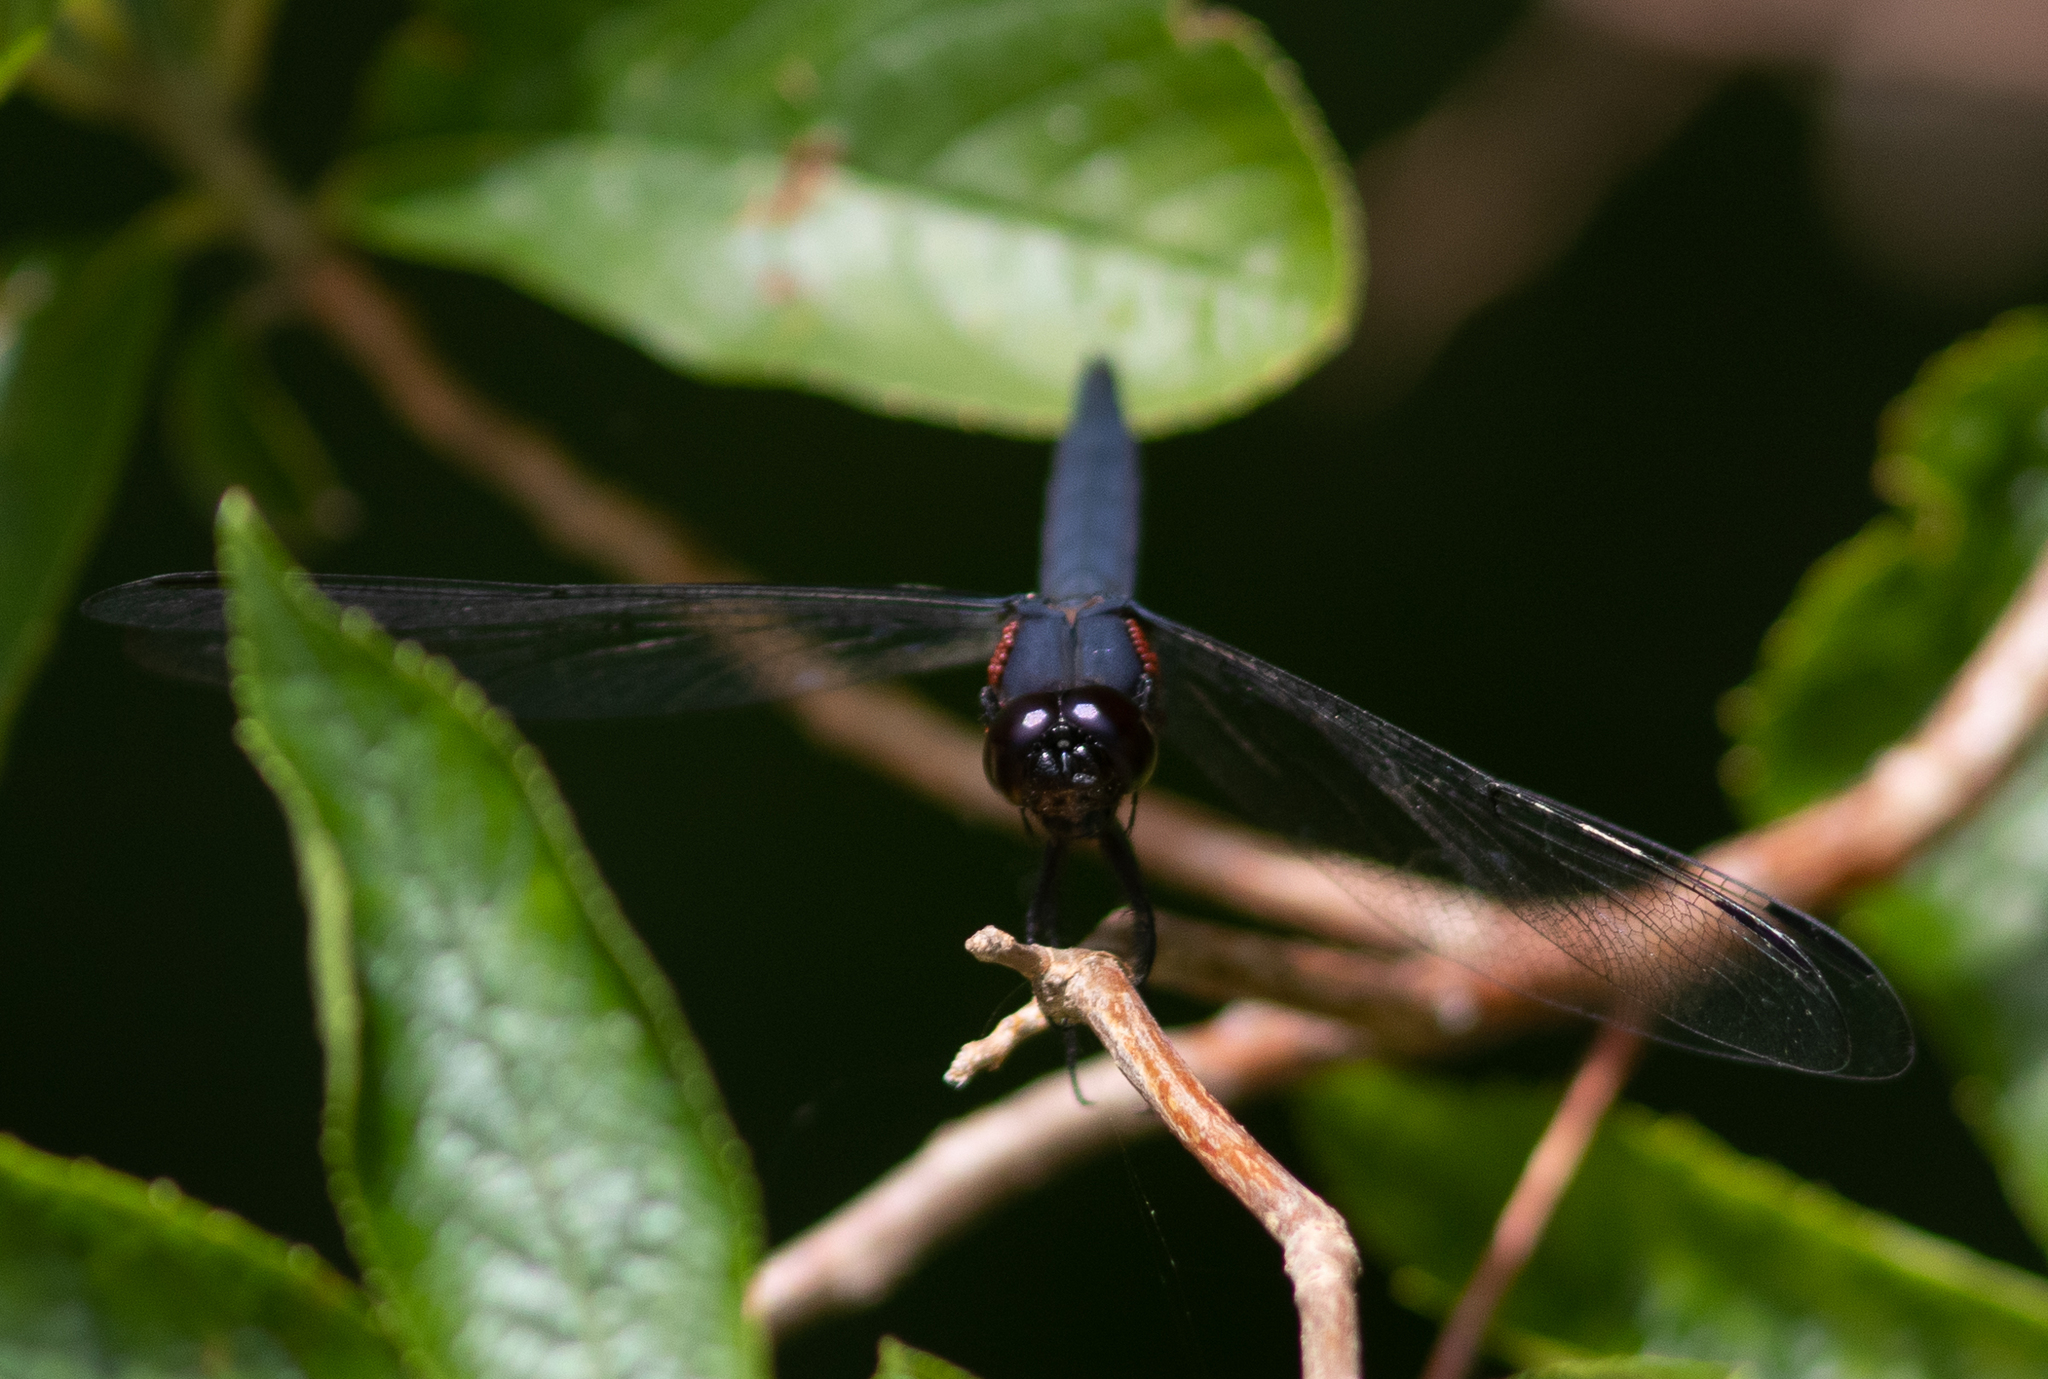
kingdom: Animalia
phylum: Arthropoda
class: Insecta
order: Odonata
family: Libellulidae
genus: Libellula
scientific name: Libellula incesta
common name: Slaty skimmer
